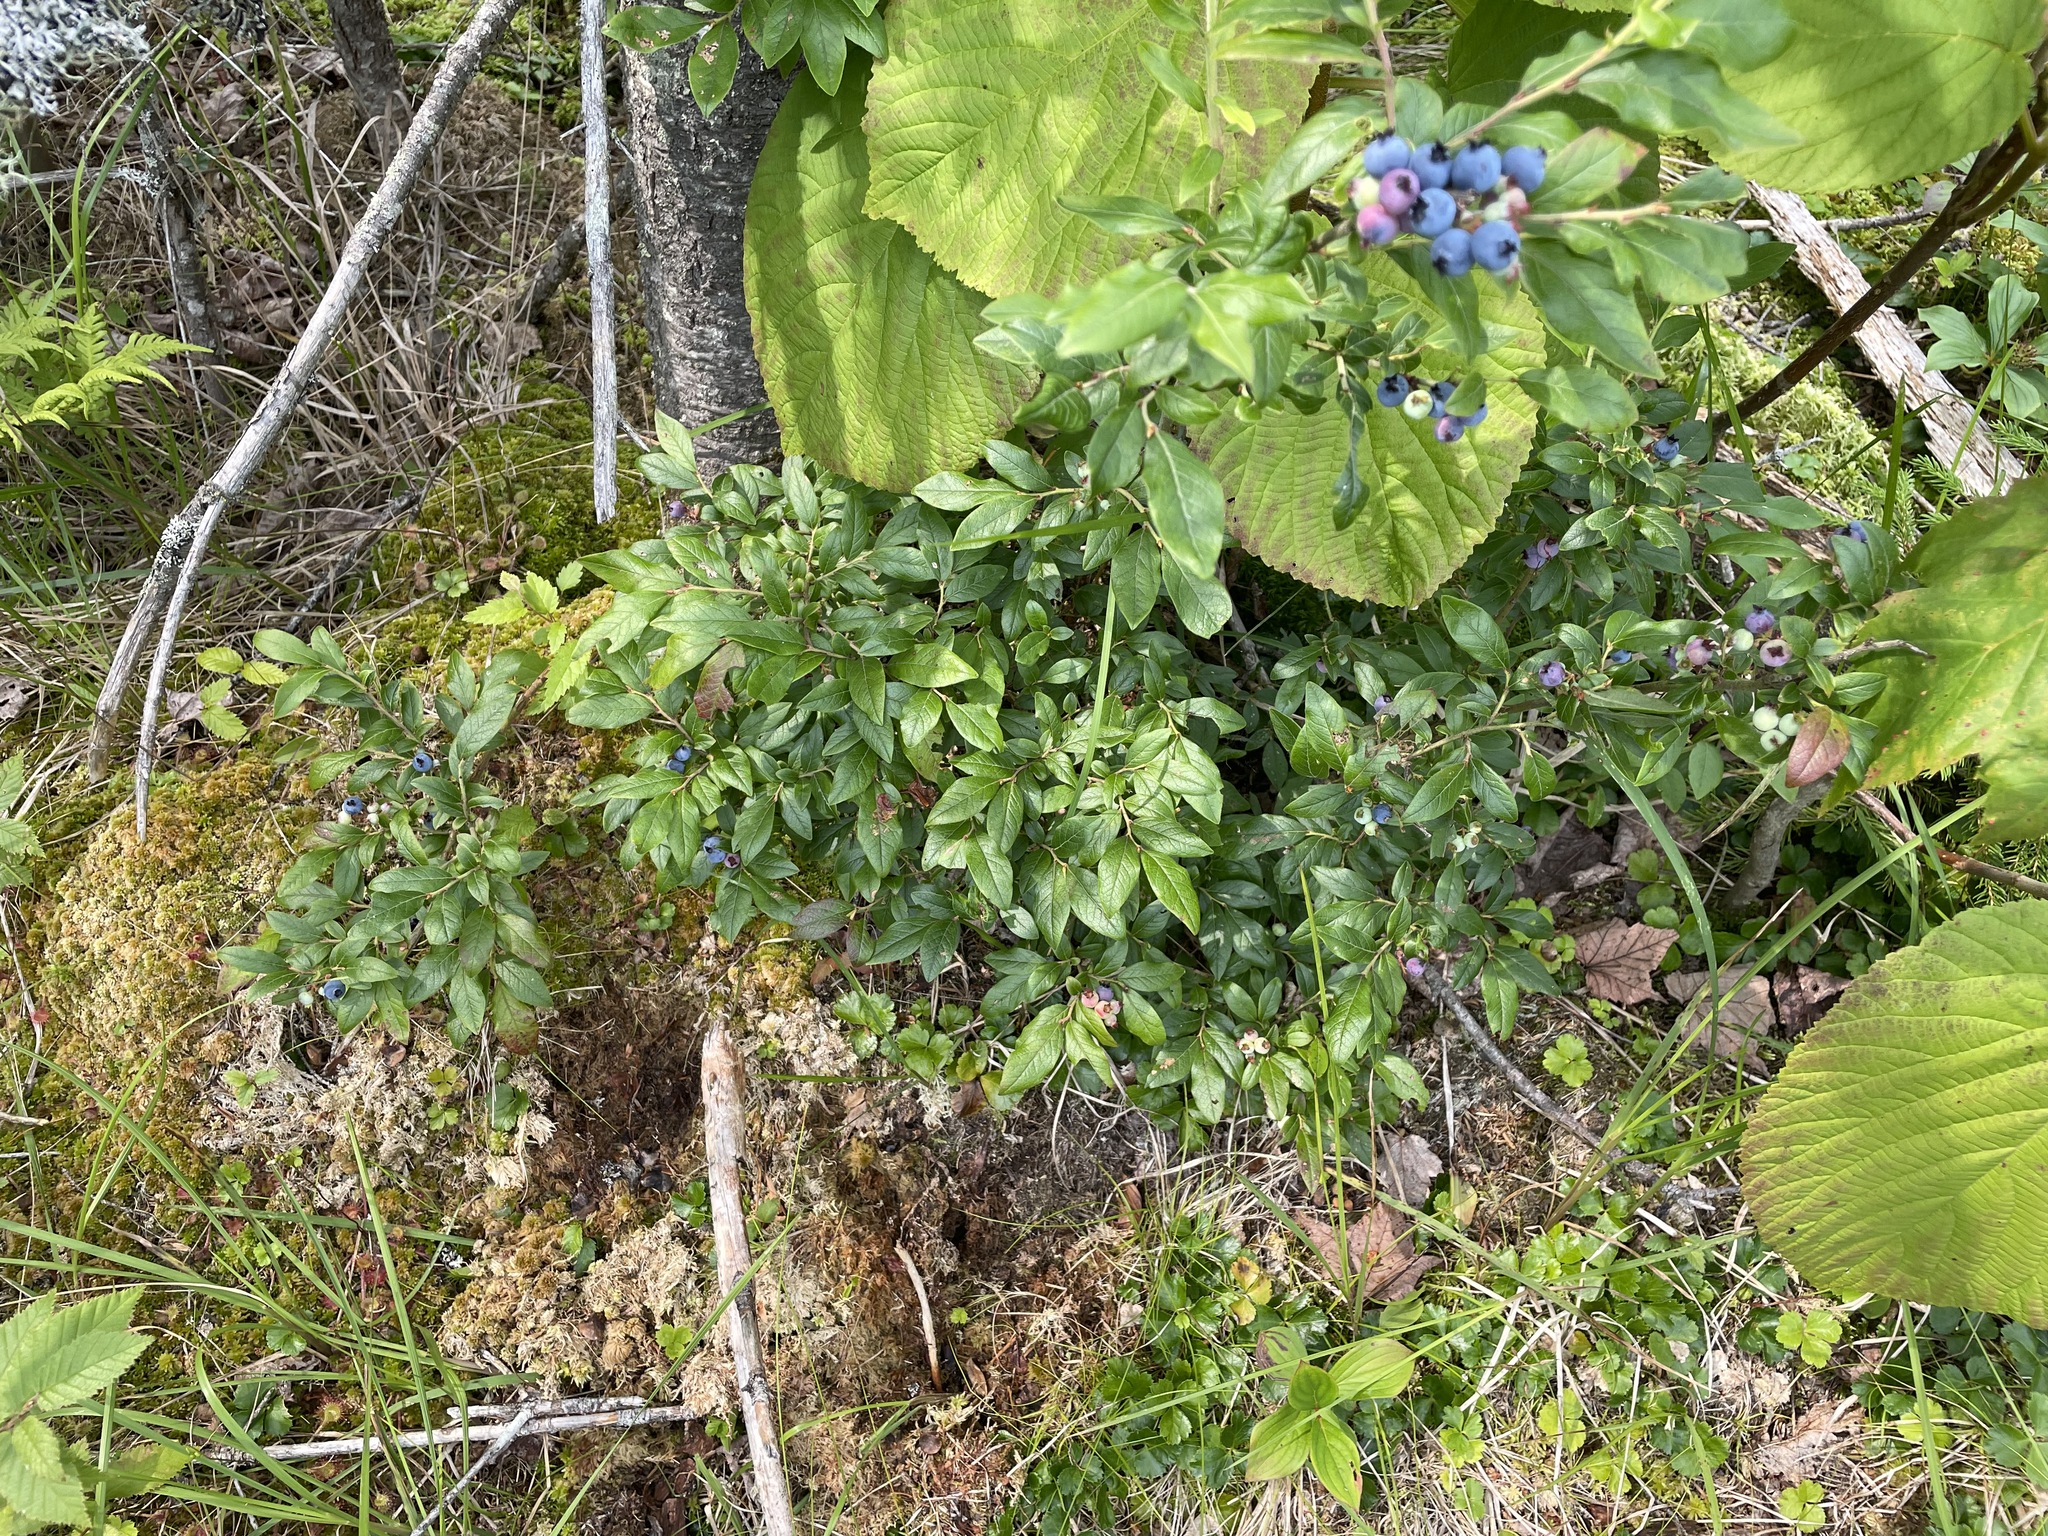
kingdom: Plantae
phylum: Tracheophyta
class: Magnoliopsida
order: Ericales
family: Ericaceae
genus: Vaccinium
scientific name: Vaccinium myrtilloides
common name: Canada blueberry
